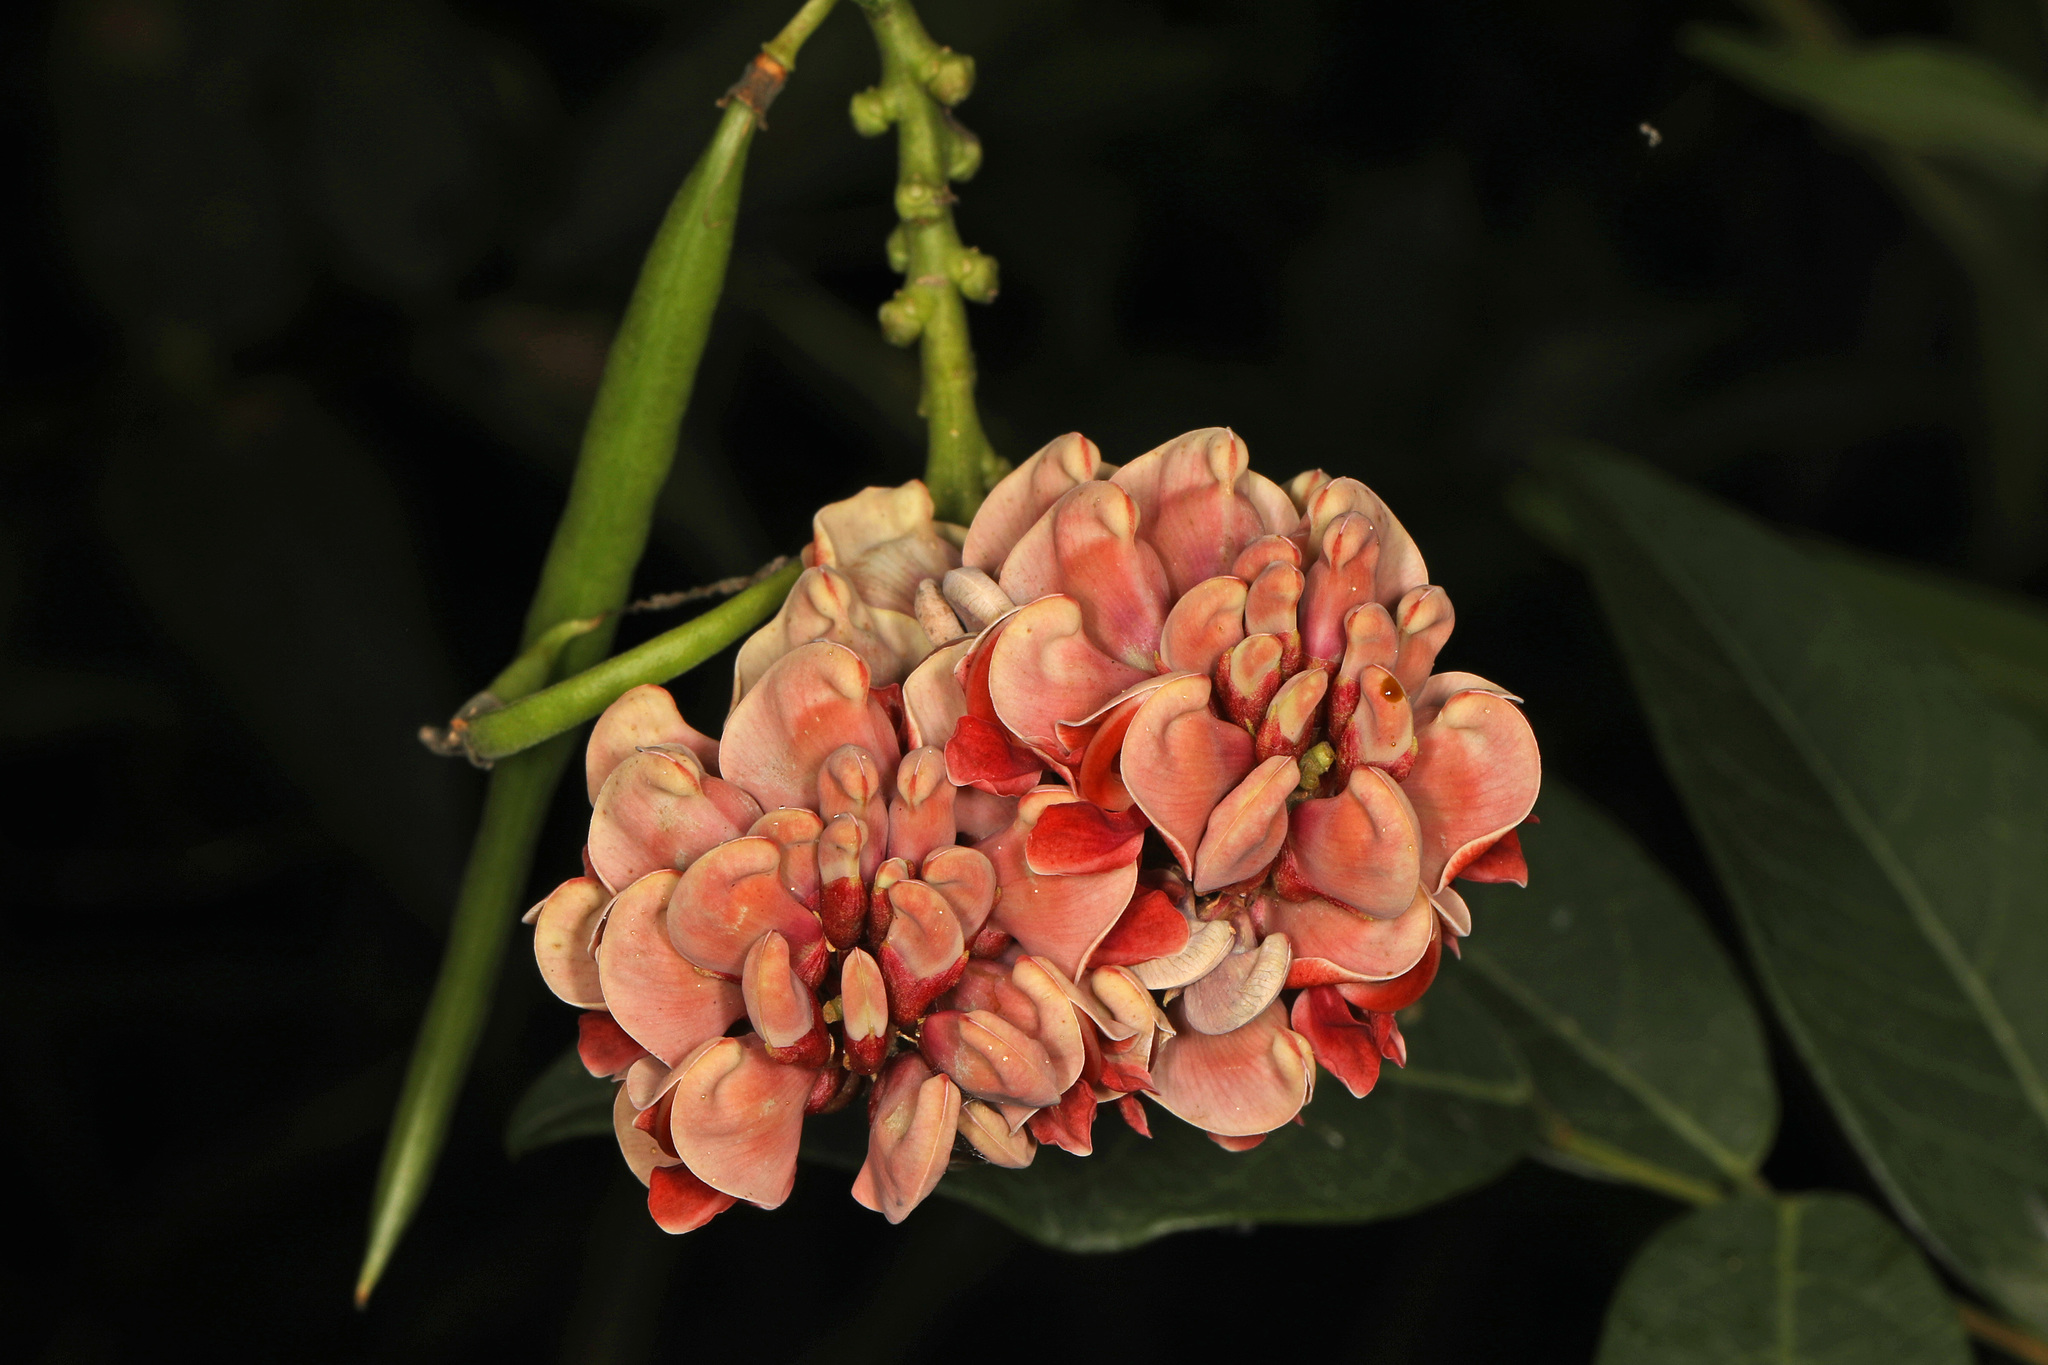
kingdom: Plantae
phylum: Tracheophyta
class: Magnoliopsida
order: Fabales
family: Fabaceae
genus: Apios
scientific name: Apios americana
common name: American potato-bean
